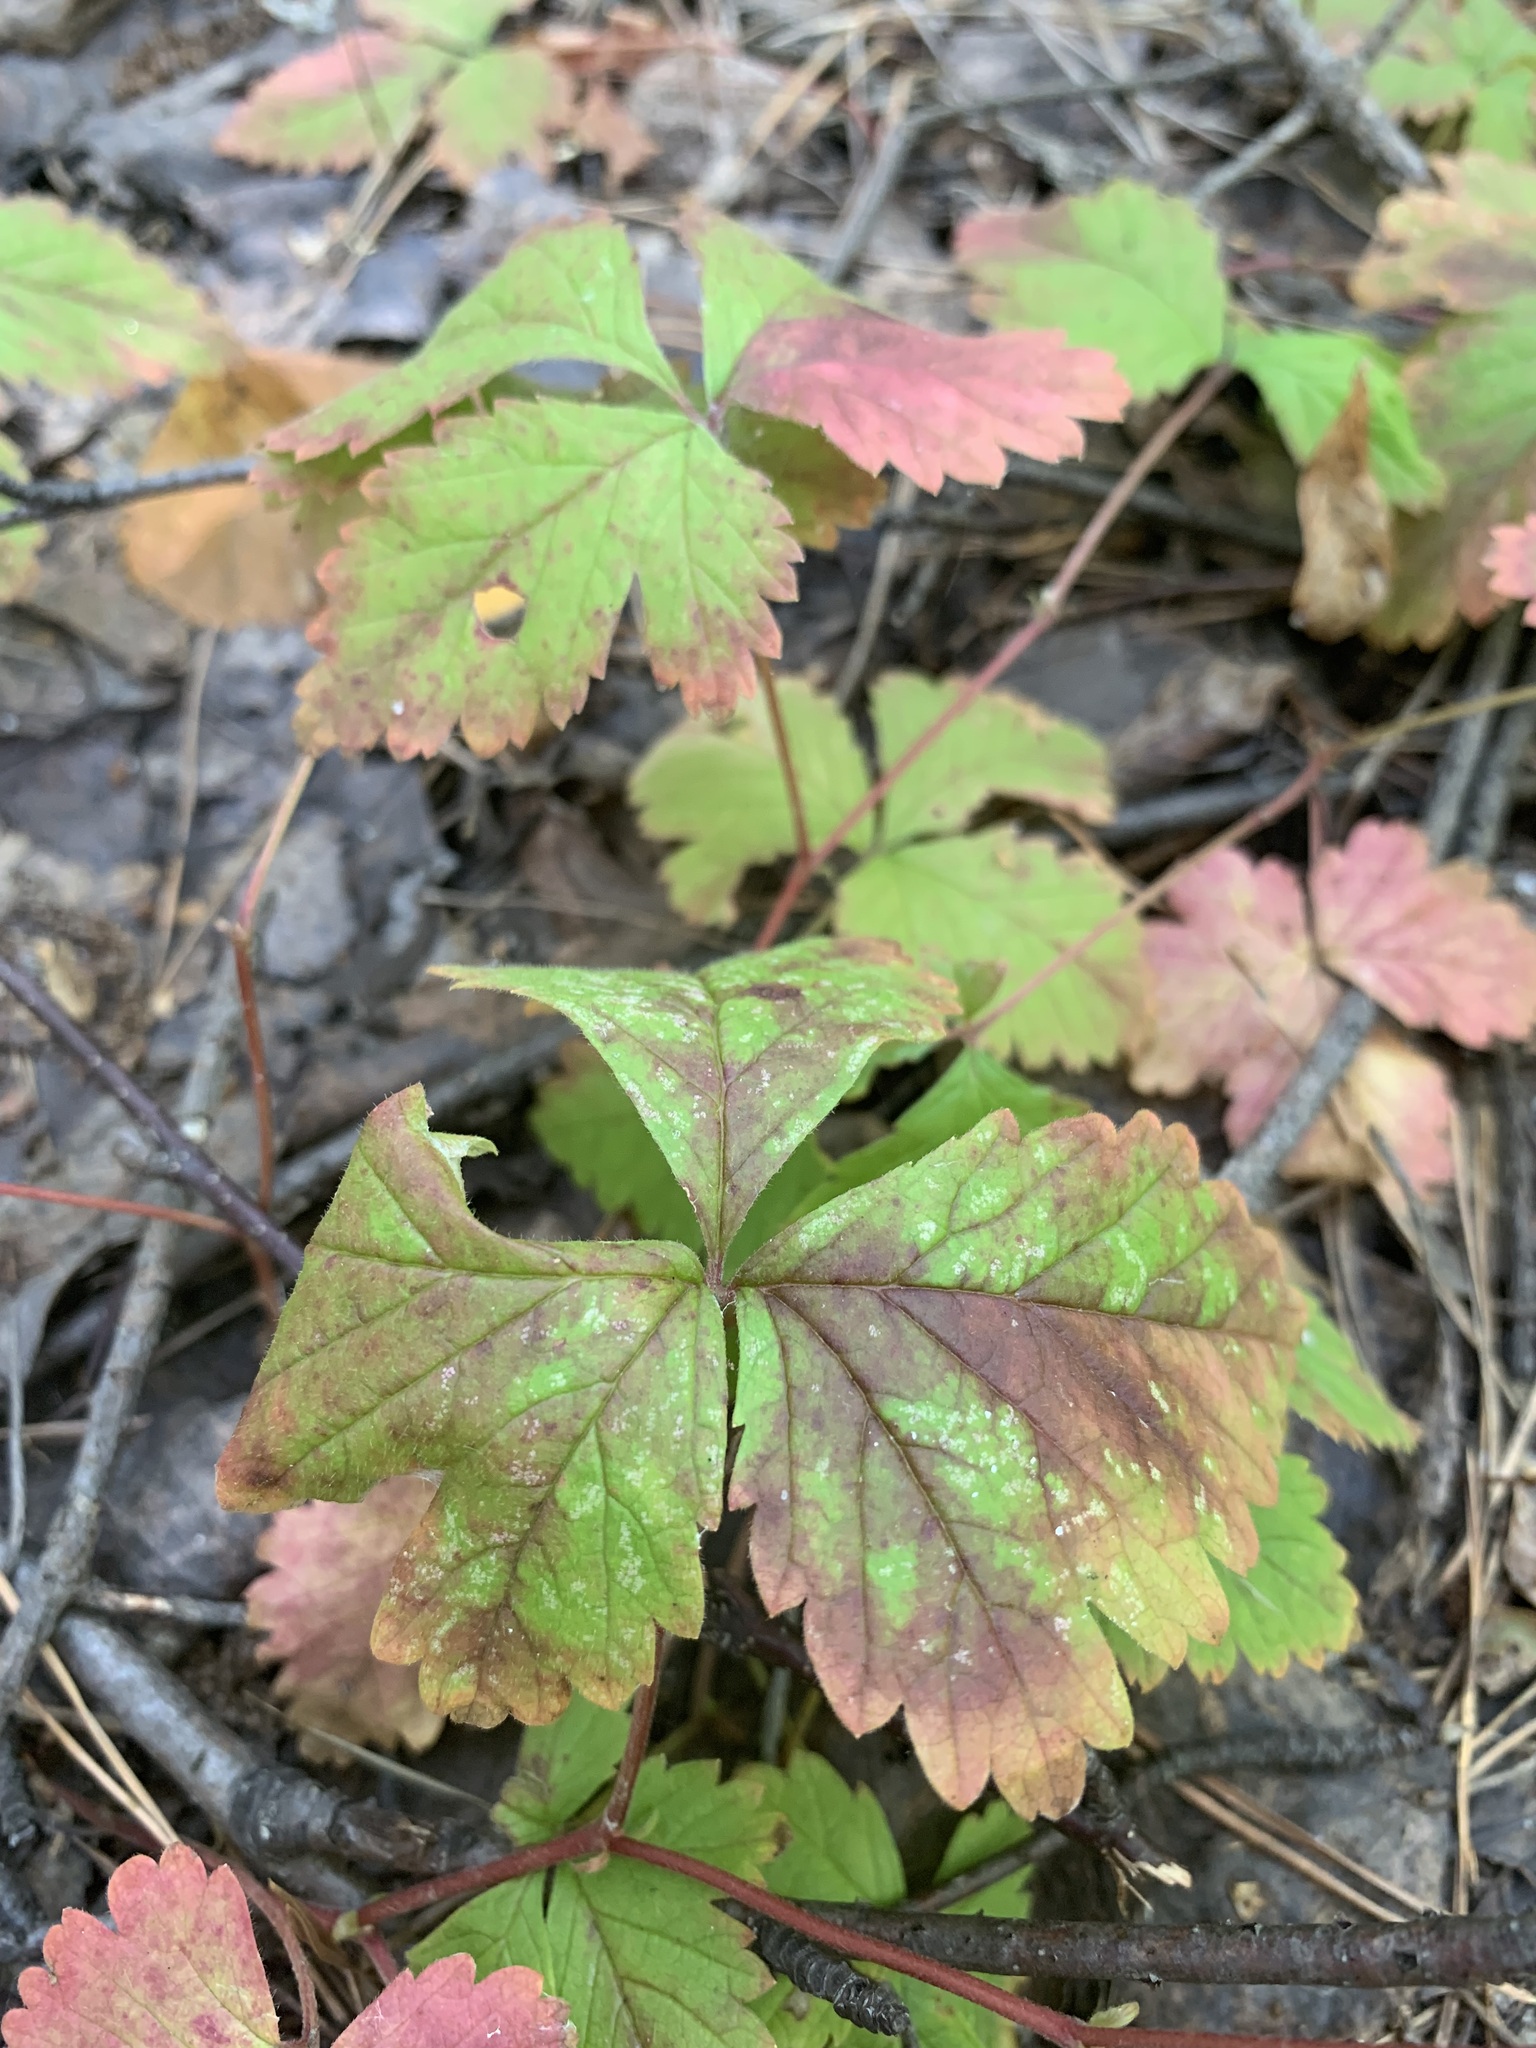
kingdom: Plantae
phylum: Tracheophyta
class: Magnoliopsida
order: Rosales
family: Rosaceae
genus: Rubus
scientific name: Rubus arcticus
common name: Arctic bramble
